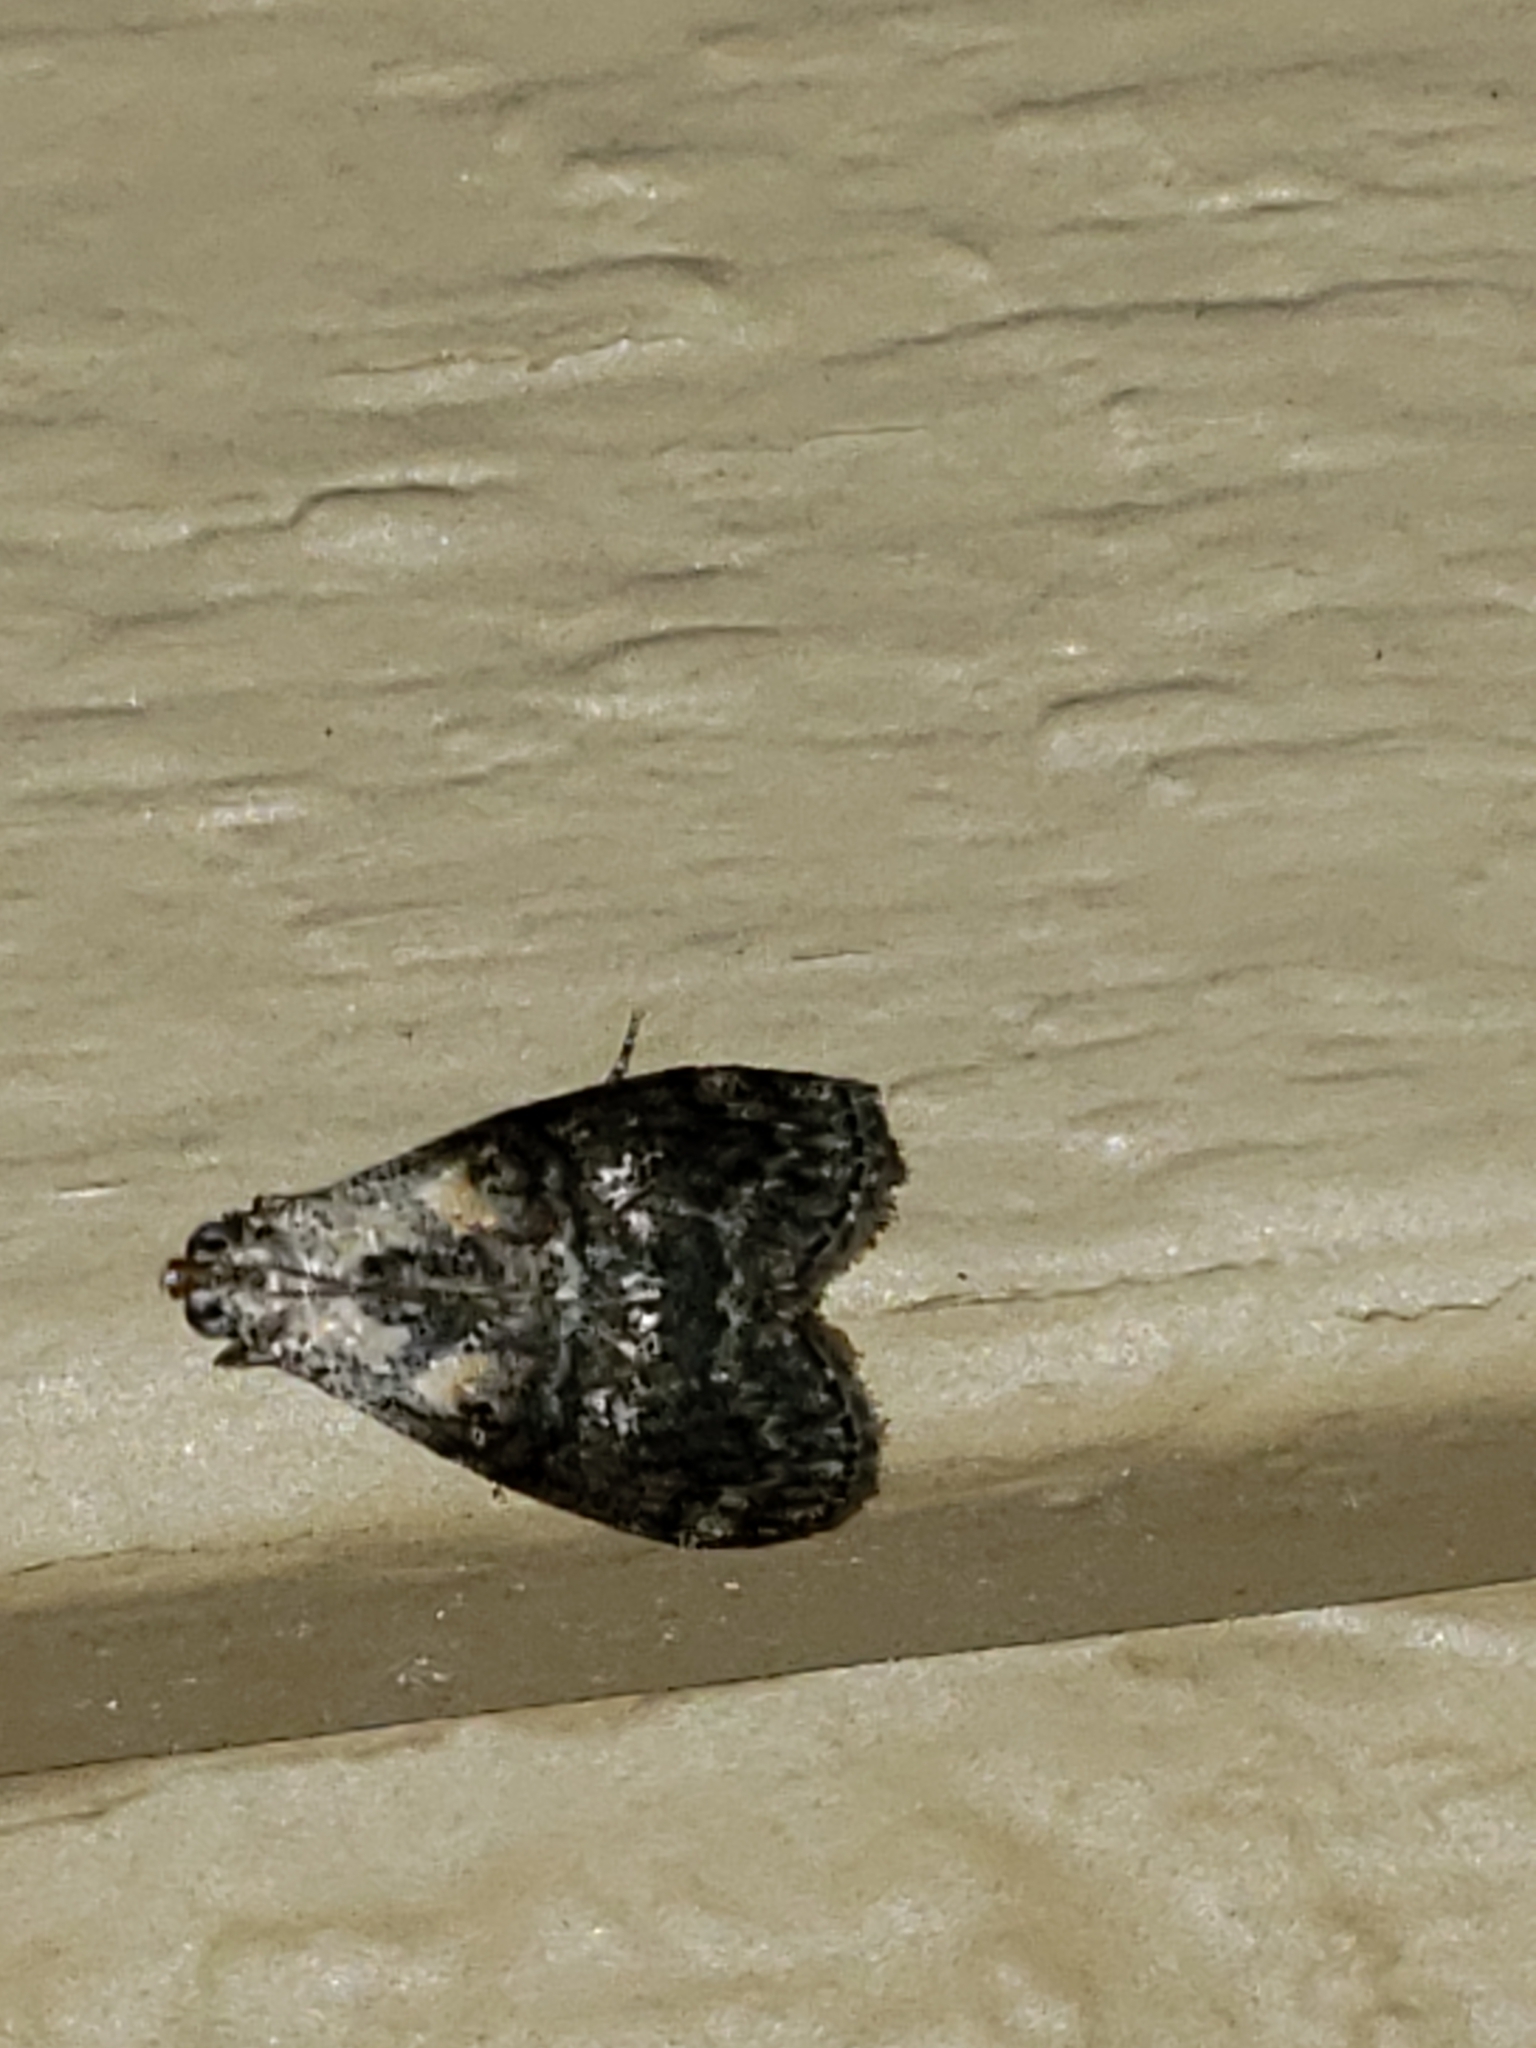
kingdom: Animalia
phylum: Arthropoda
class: Insecta
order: Lepidoptera
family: Pyralidae
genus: Pococera
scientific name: Pococera expandens
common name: Striped oak webworm moth
